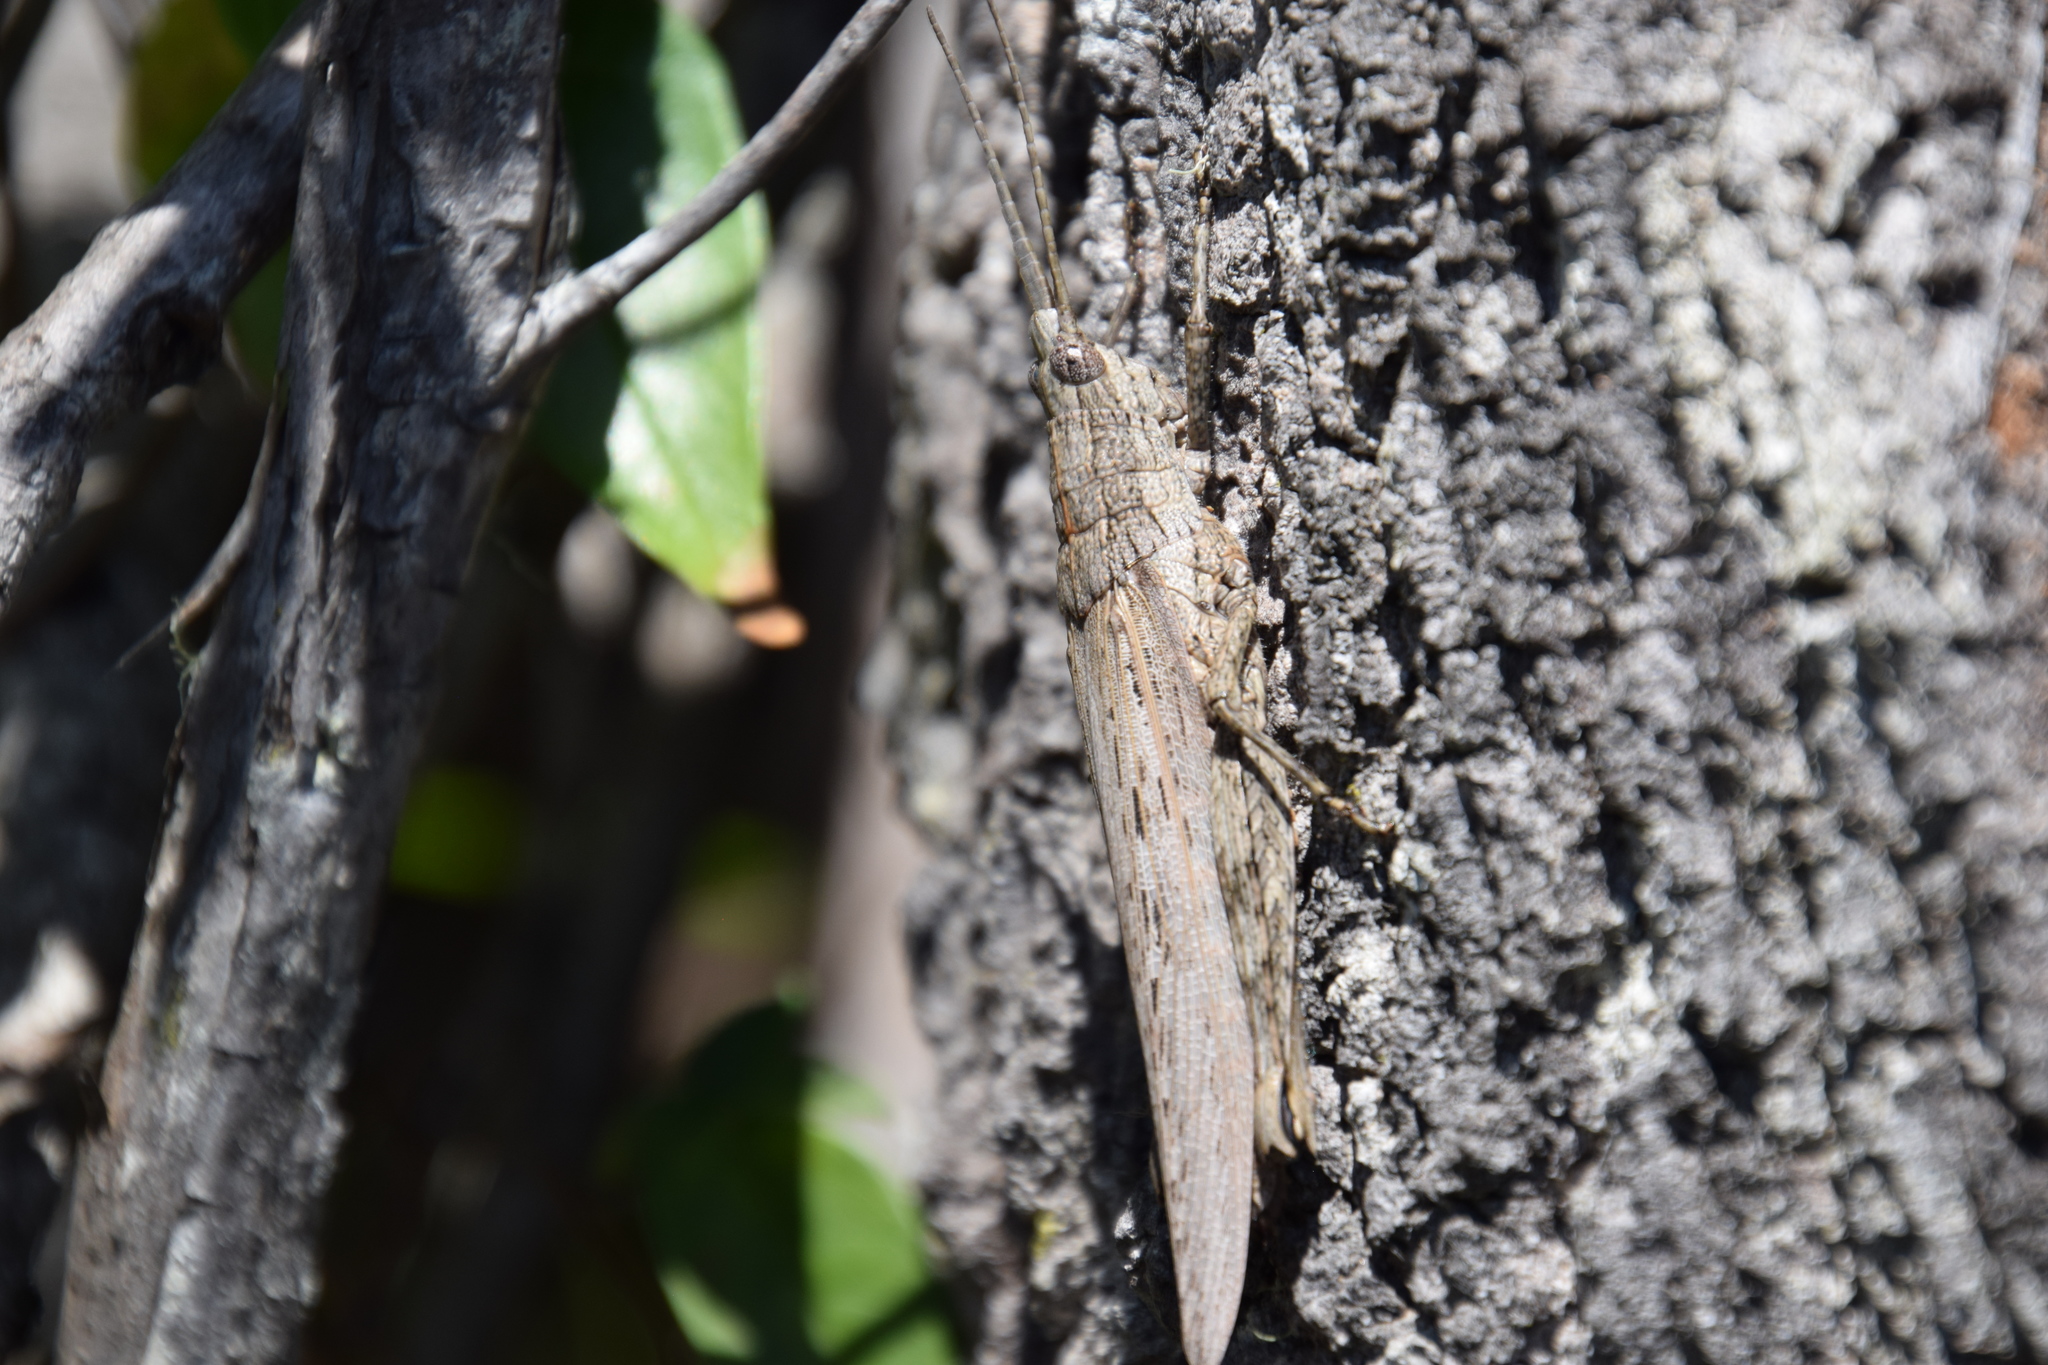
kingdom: Animalia
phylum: Arthropoda
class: Insecta
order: Orthoptera
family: Acrididae
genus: Coryphistes
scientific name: Coryphistes ruricola
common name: Bark-mimicking grasshopper
